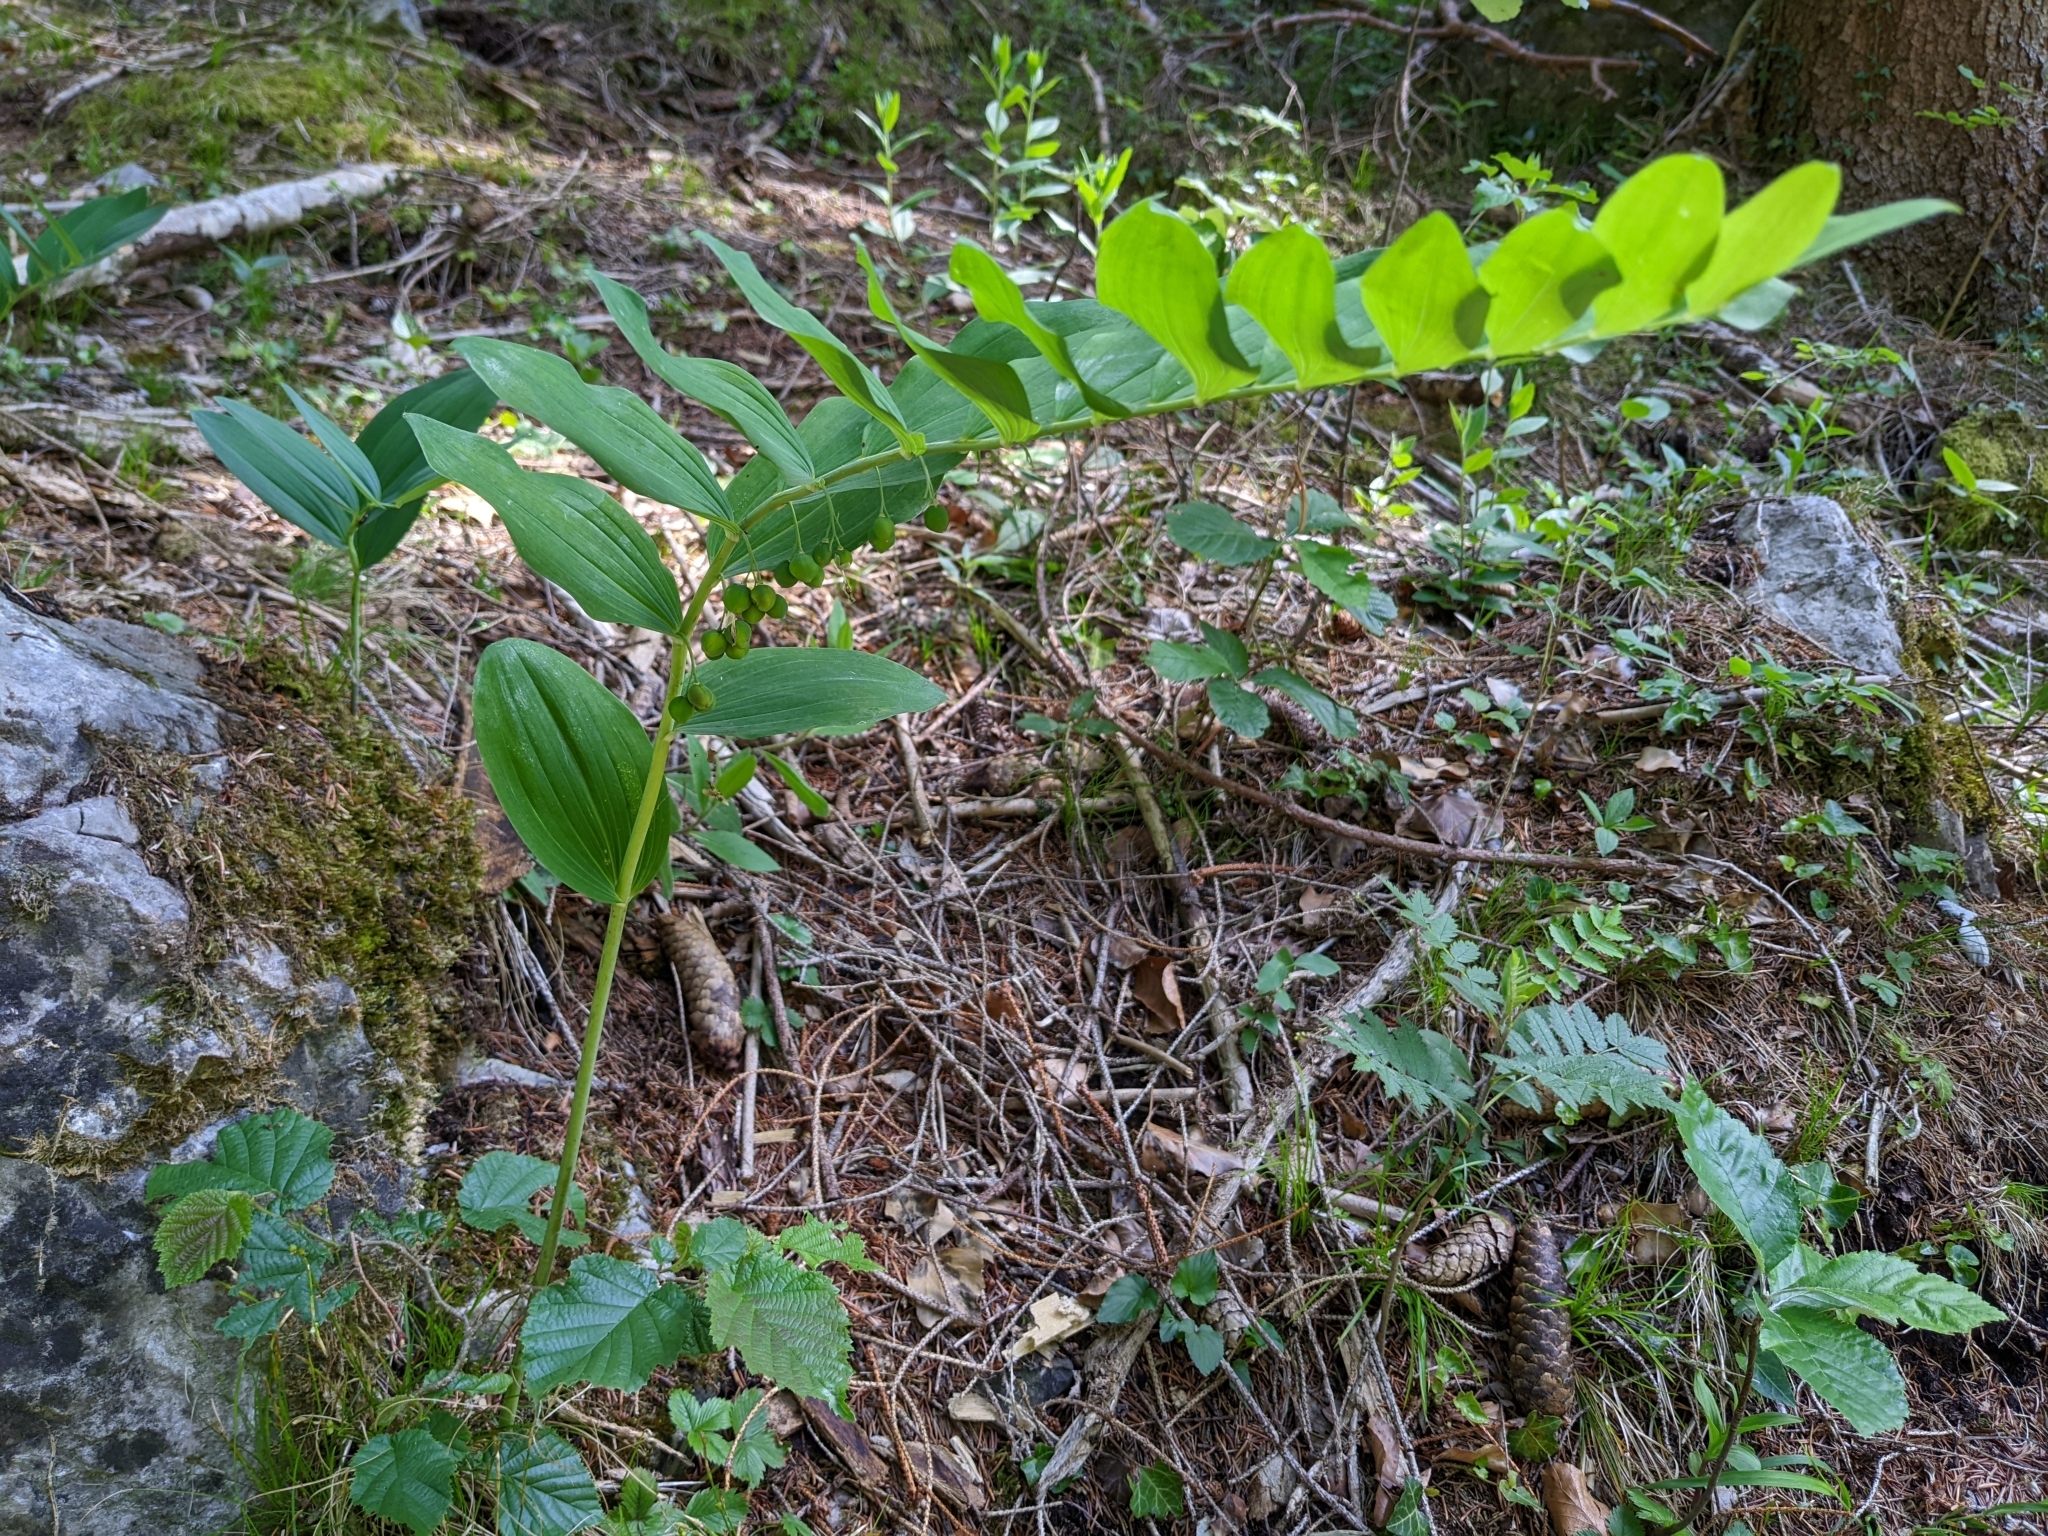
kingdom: Plantae
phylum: Tracheophyta
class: Liliopsida
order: Asparagales
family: Asparagaceae
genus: Polygonatum
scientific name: Polygonatum multiflorum
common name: Solomon's-seal
